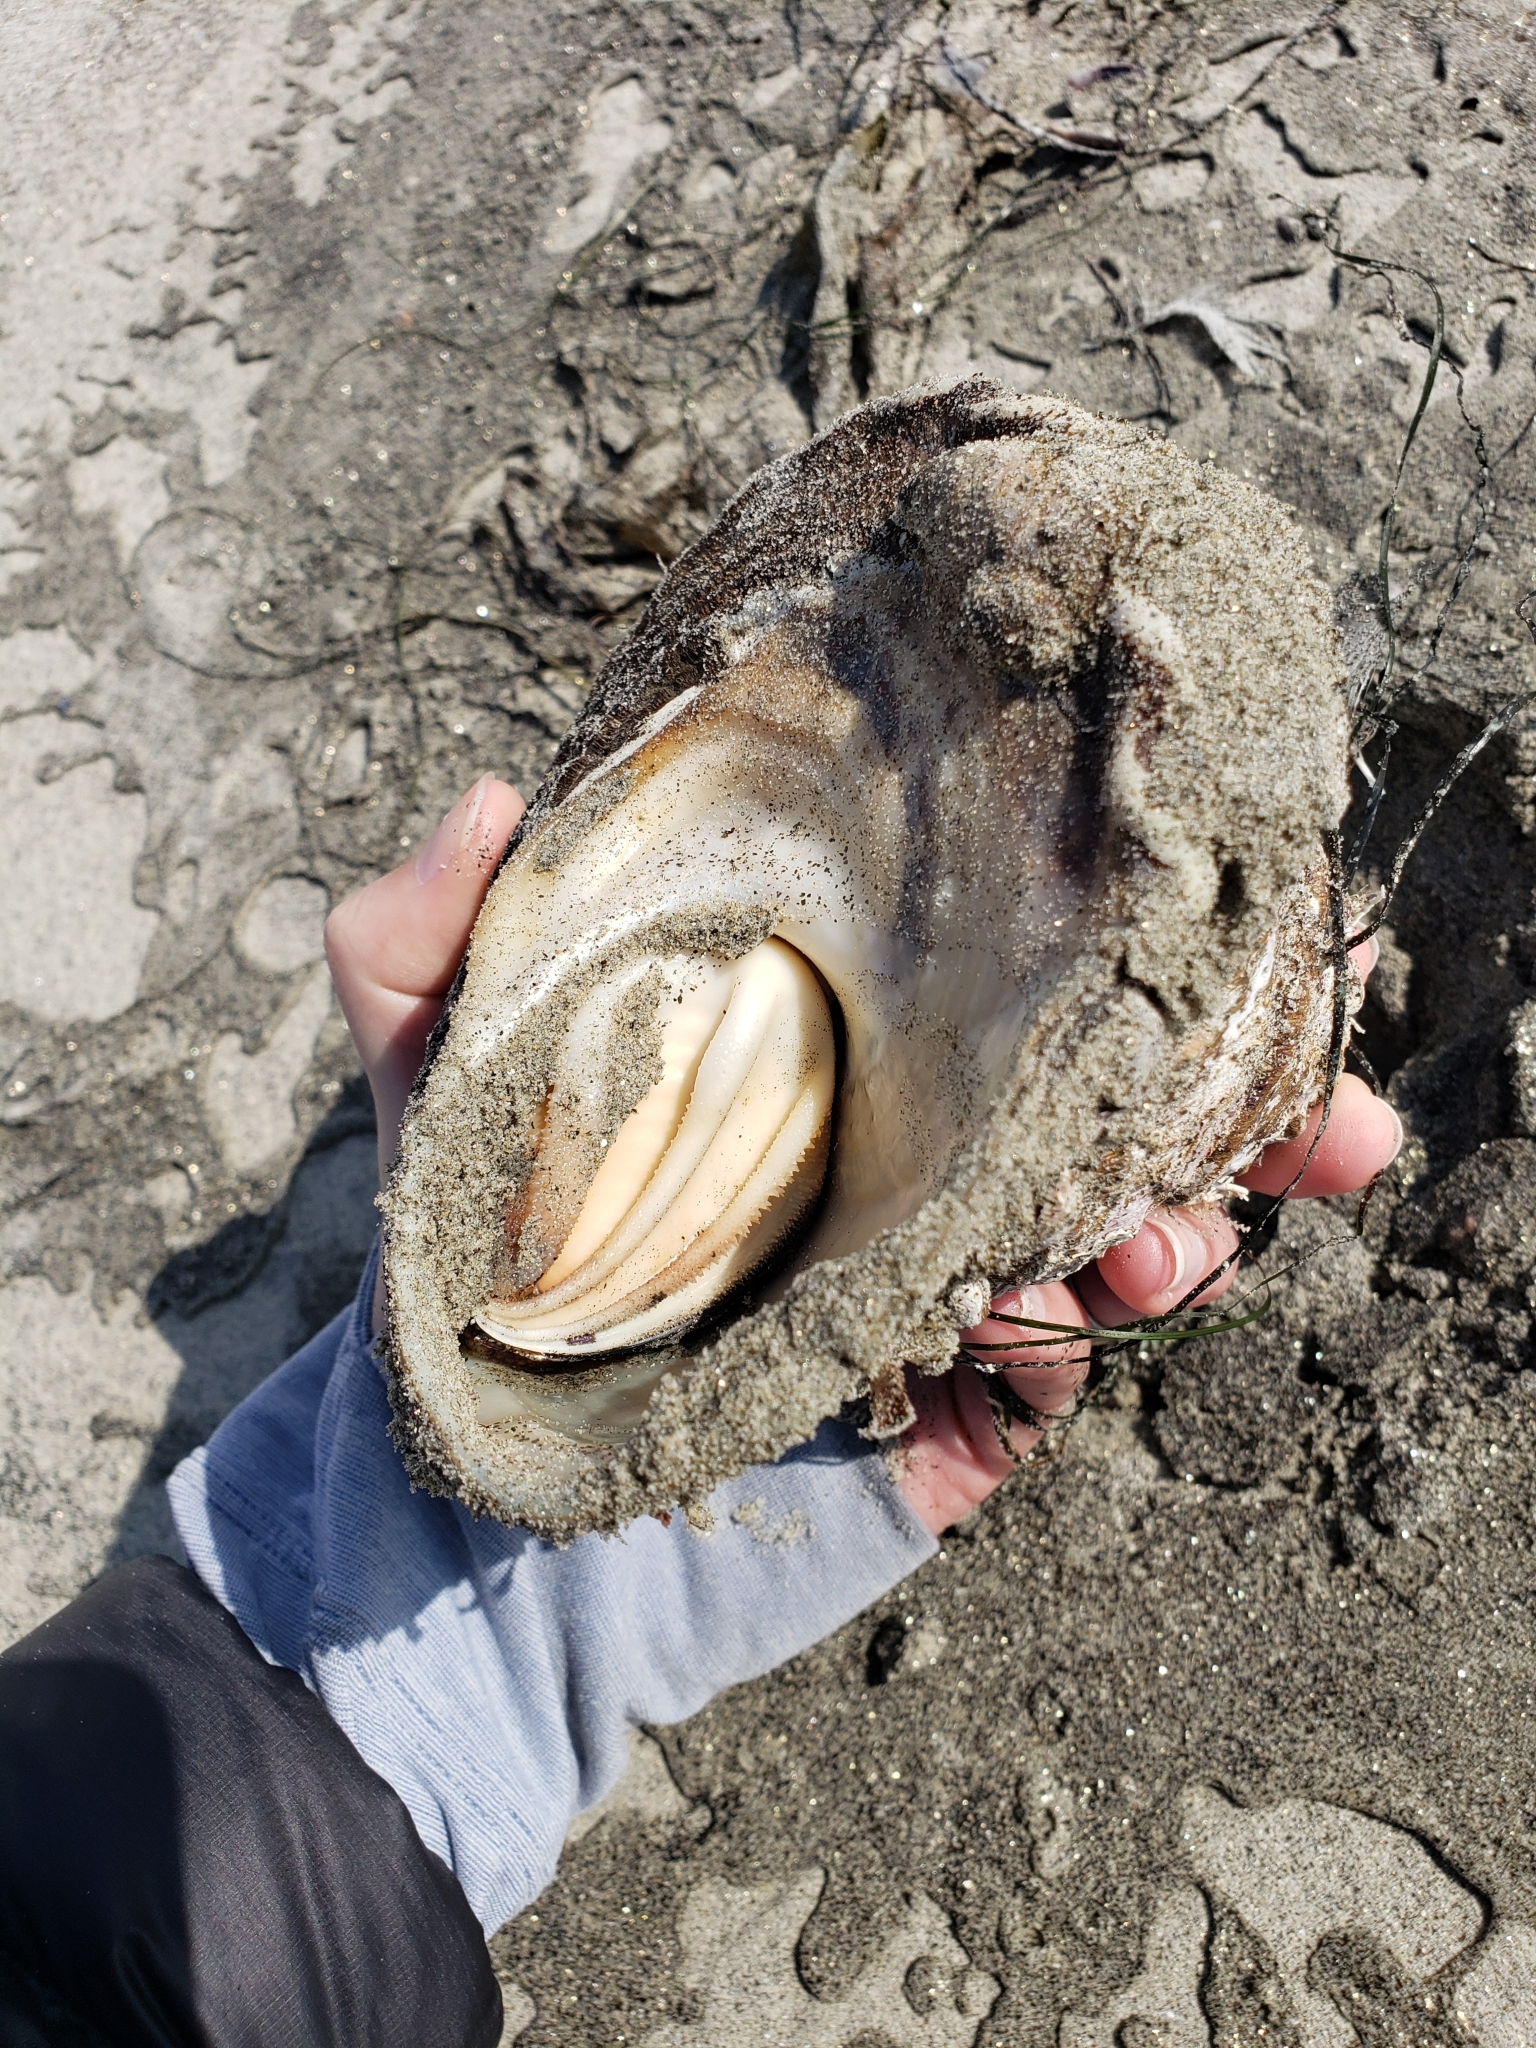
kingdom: Animalia
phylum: Mollusca
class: Gastropoda
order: Trochida
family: Turbinidae
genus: Megastraea
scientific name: Megastraea undosa
